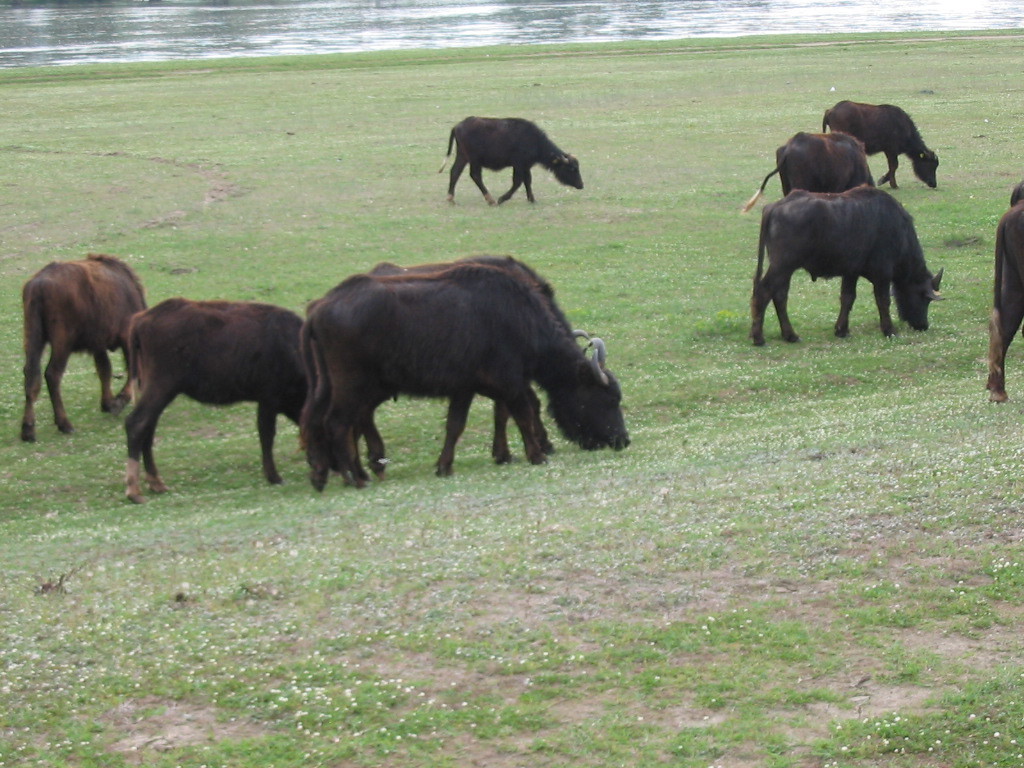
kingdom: Animalia
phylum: Chordata
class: Mammalia
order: Artiodactyla
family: Bovidae
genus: Bubalus
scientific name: Bubalus bubalis
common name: Water buffalo
